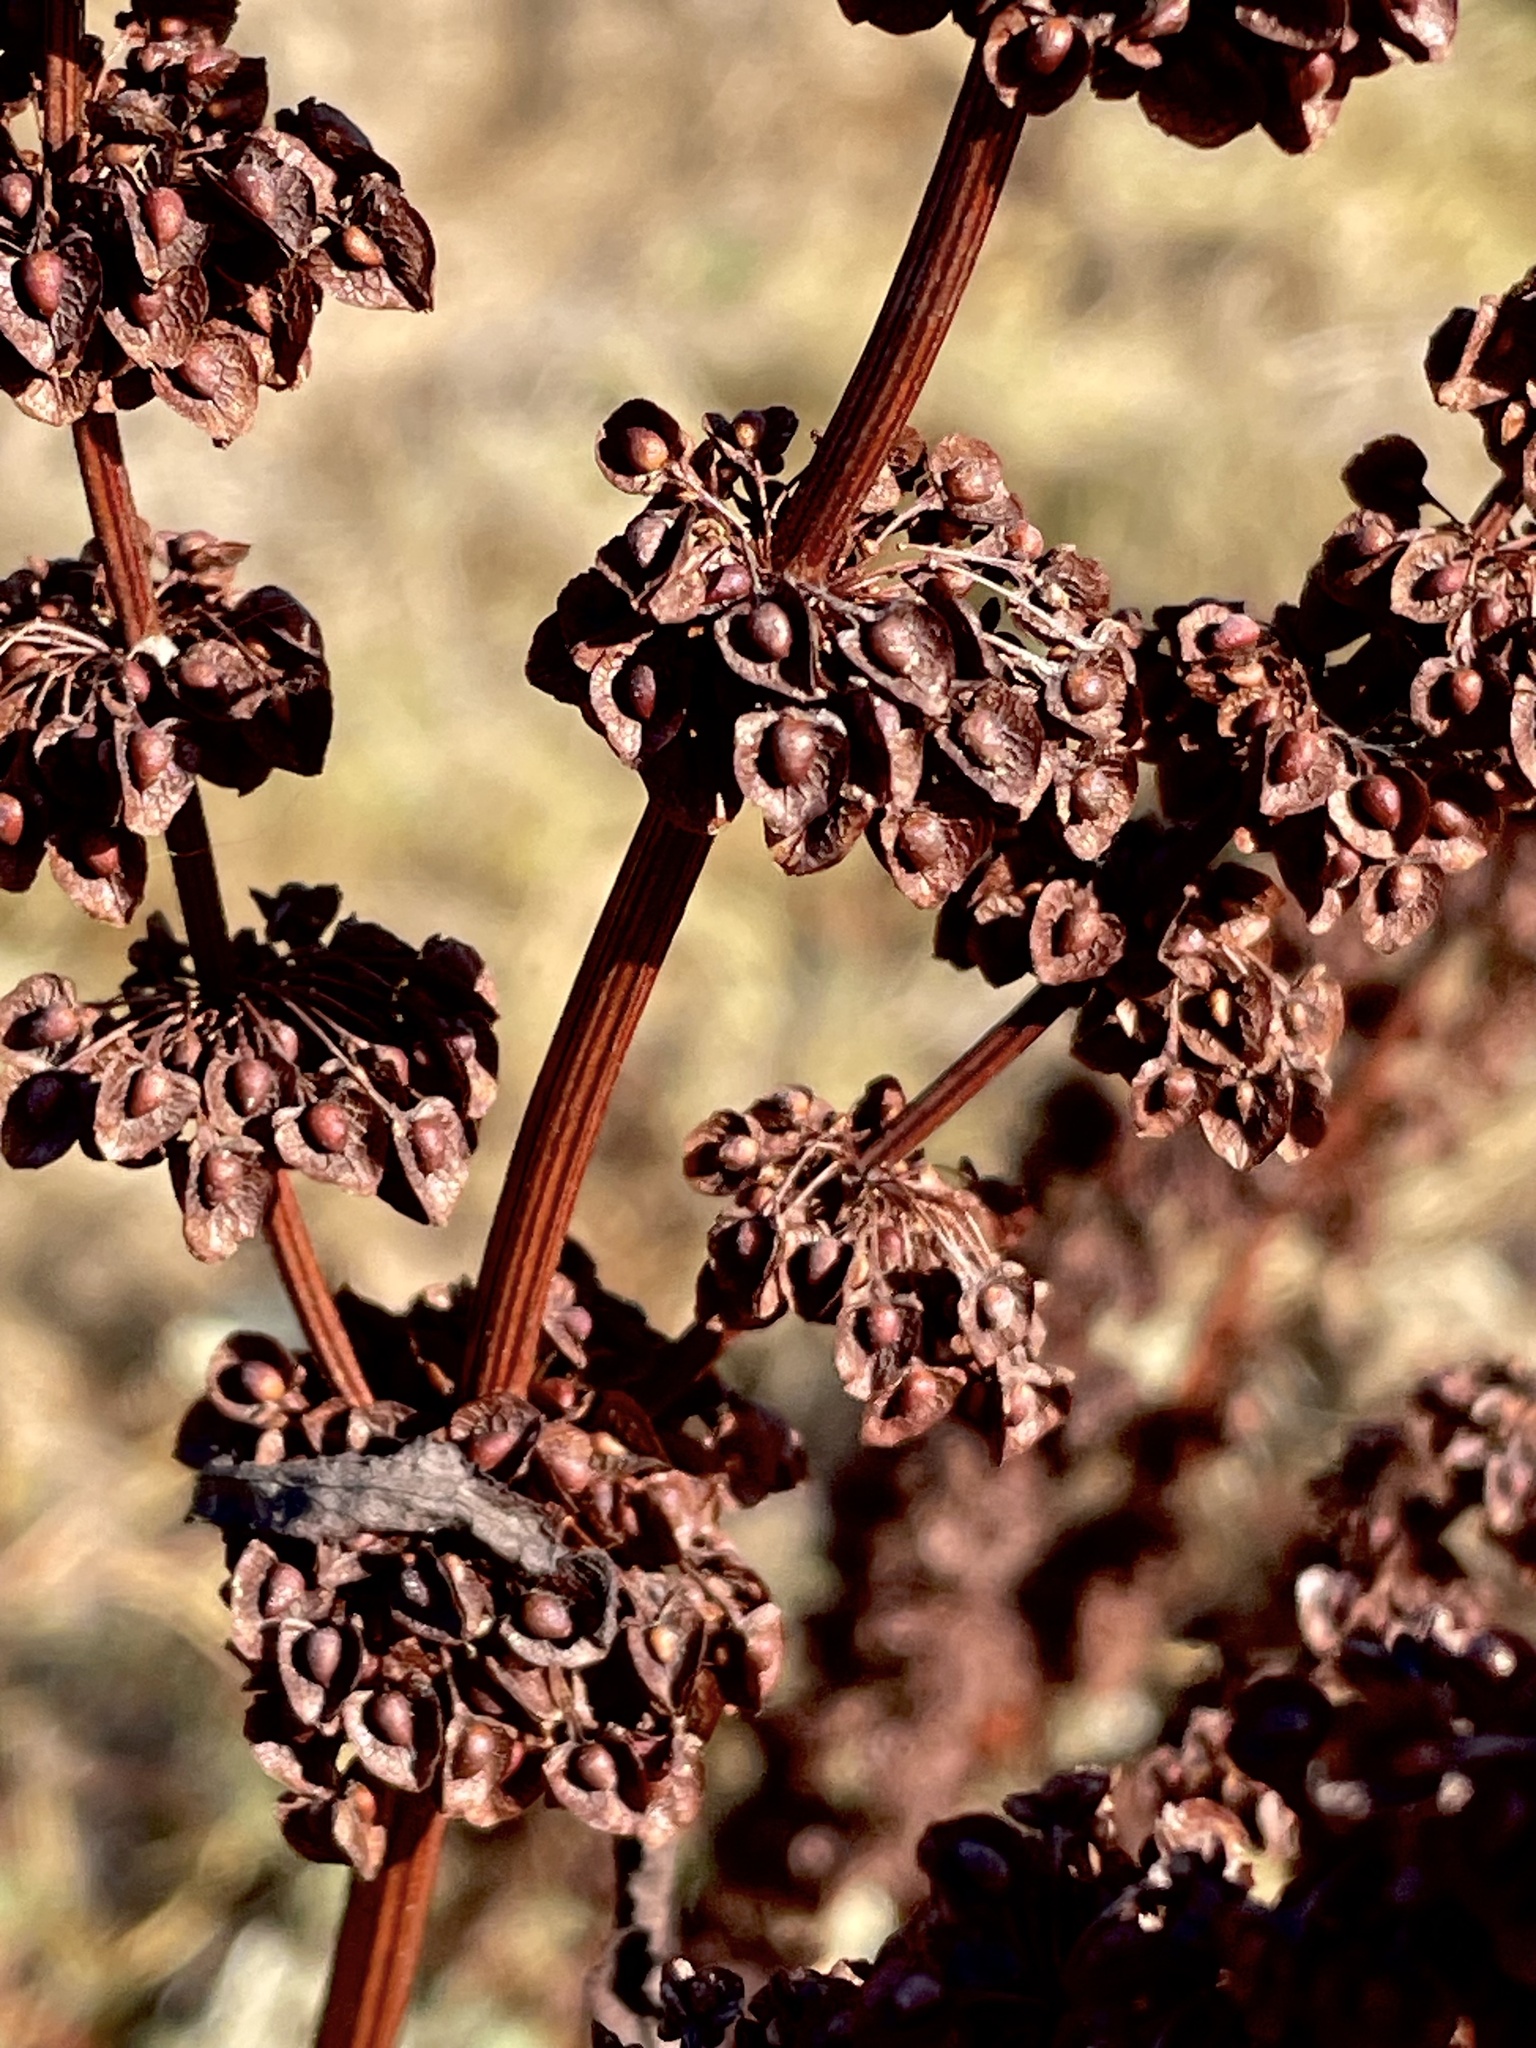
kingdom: Plantae
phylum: Tracheophyta
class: Magnoliopsida
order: Caryophyllales
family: Polygonaceae
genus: Rumex
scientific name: Rumex crispus
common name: Curled dock
